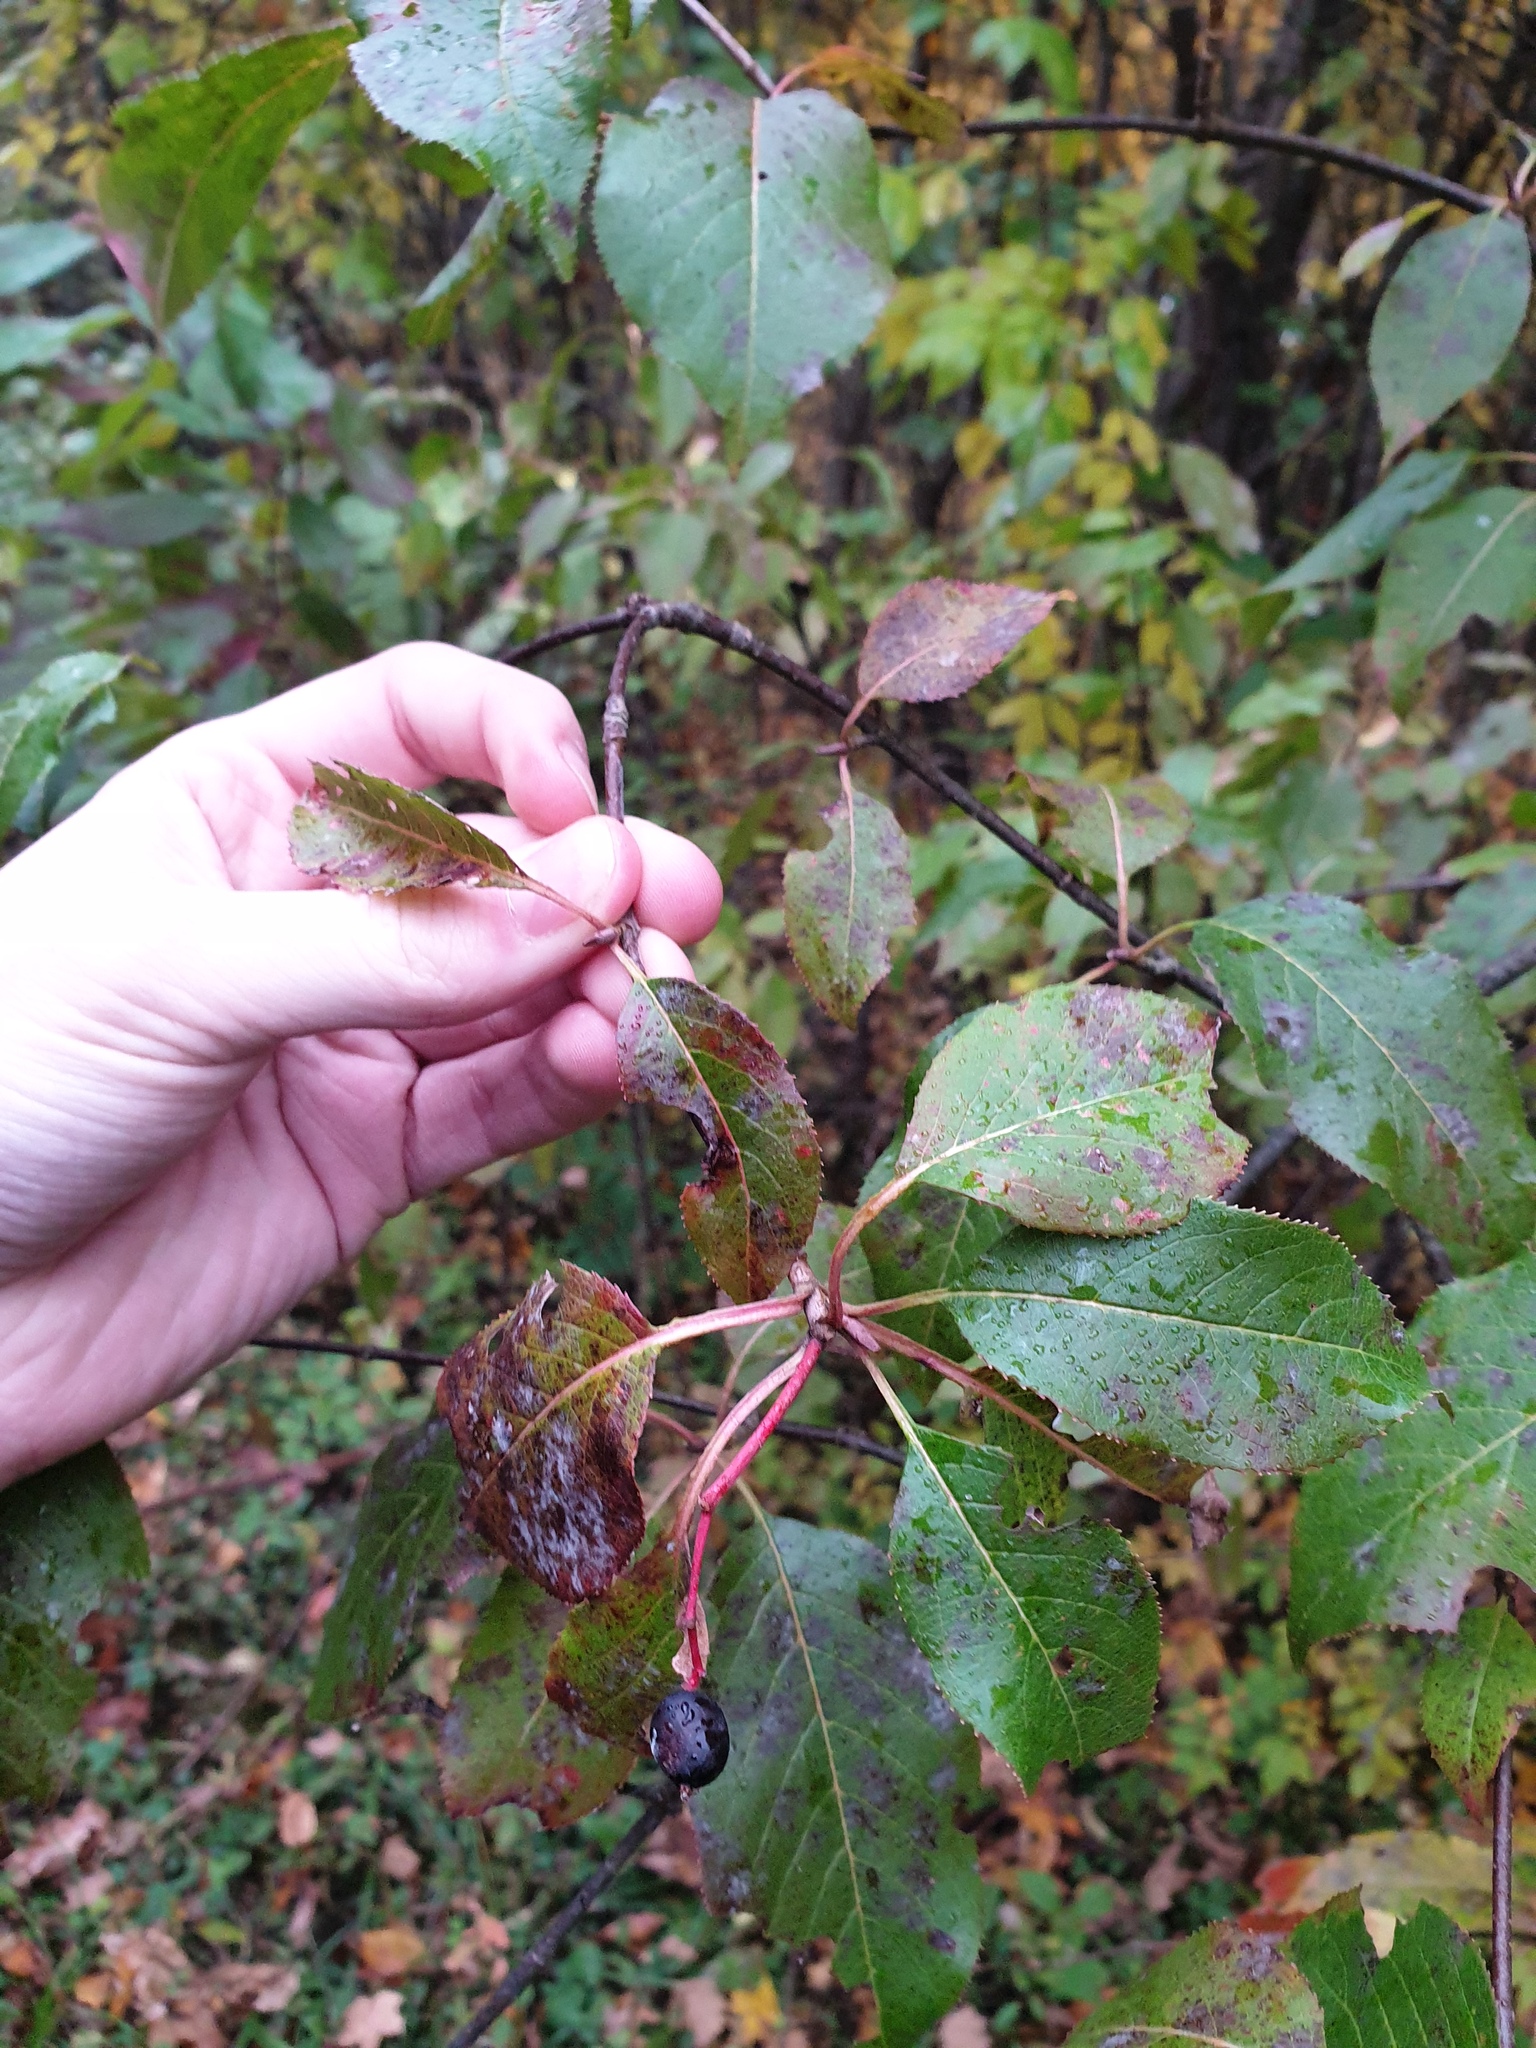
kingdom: Plantae
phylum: Tracheophyta
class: Magnoliopsida
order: Dipsacales
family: Viburnaceae
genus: Viburnum
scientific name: Viburnum lentago
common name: Black haw
